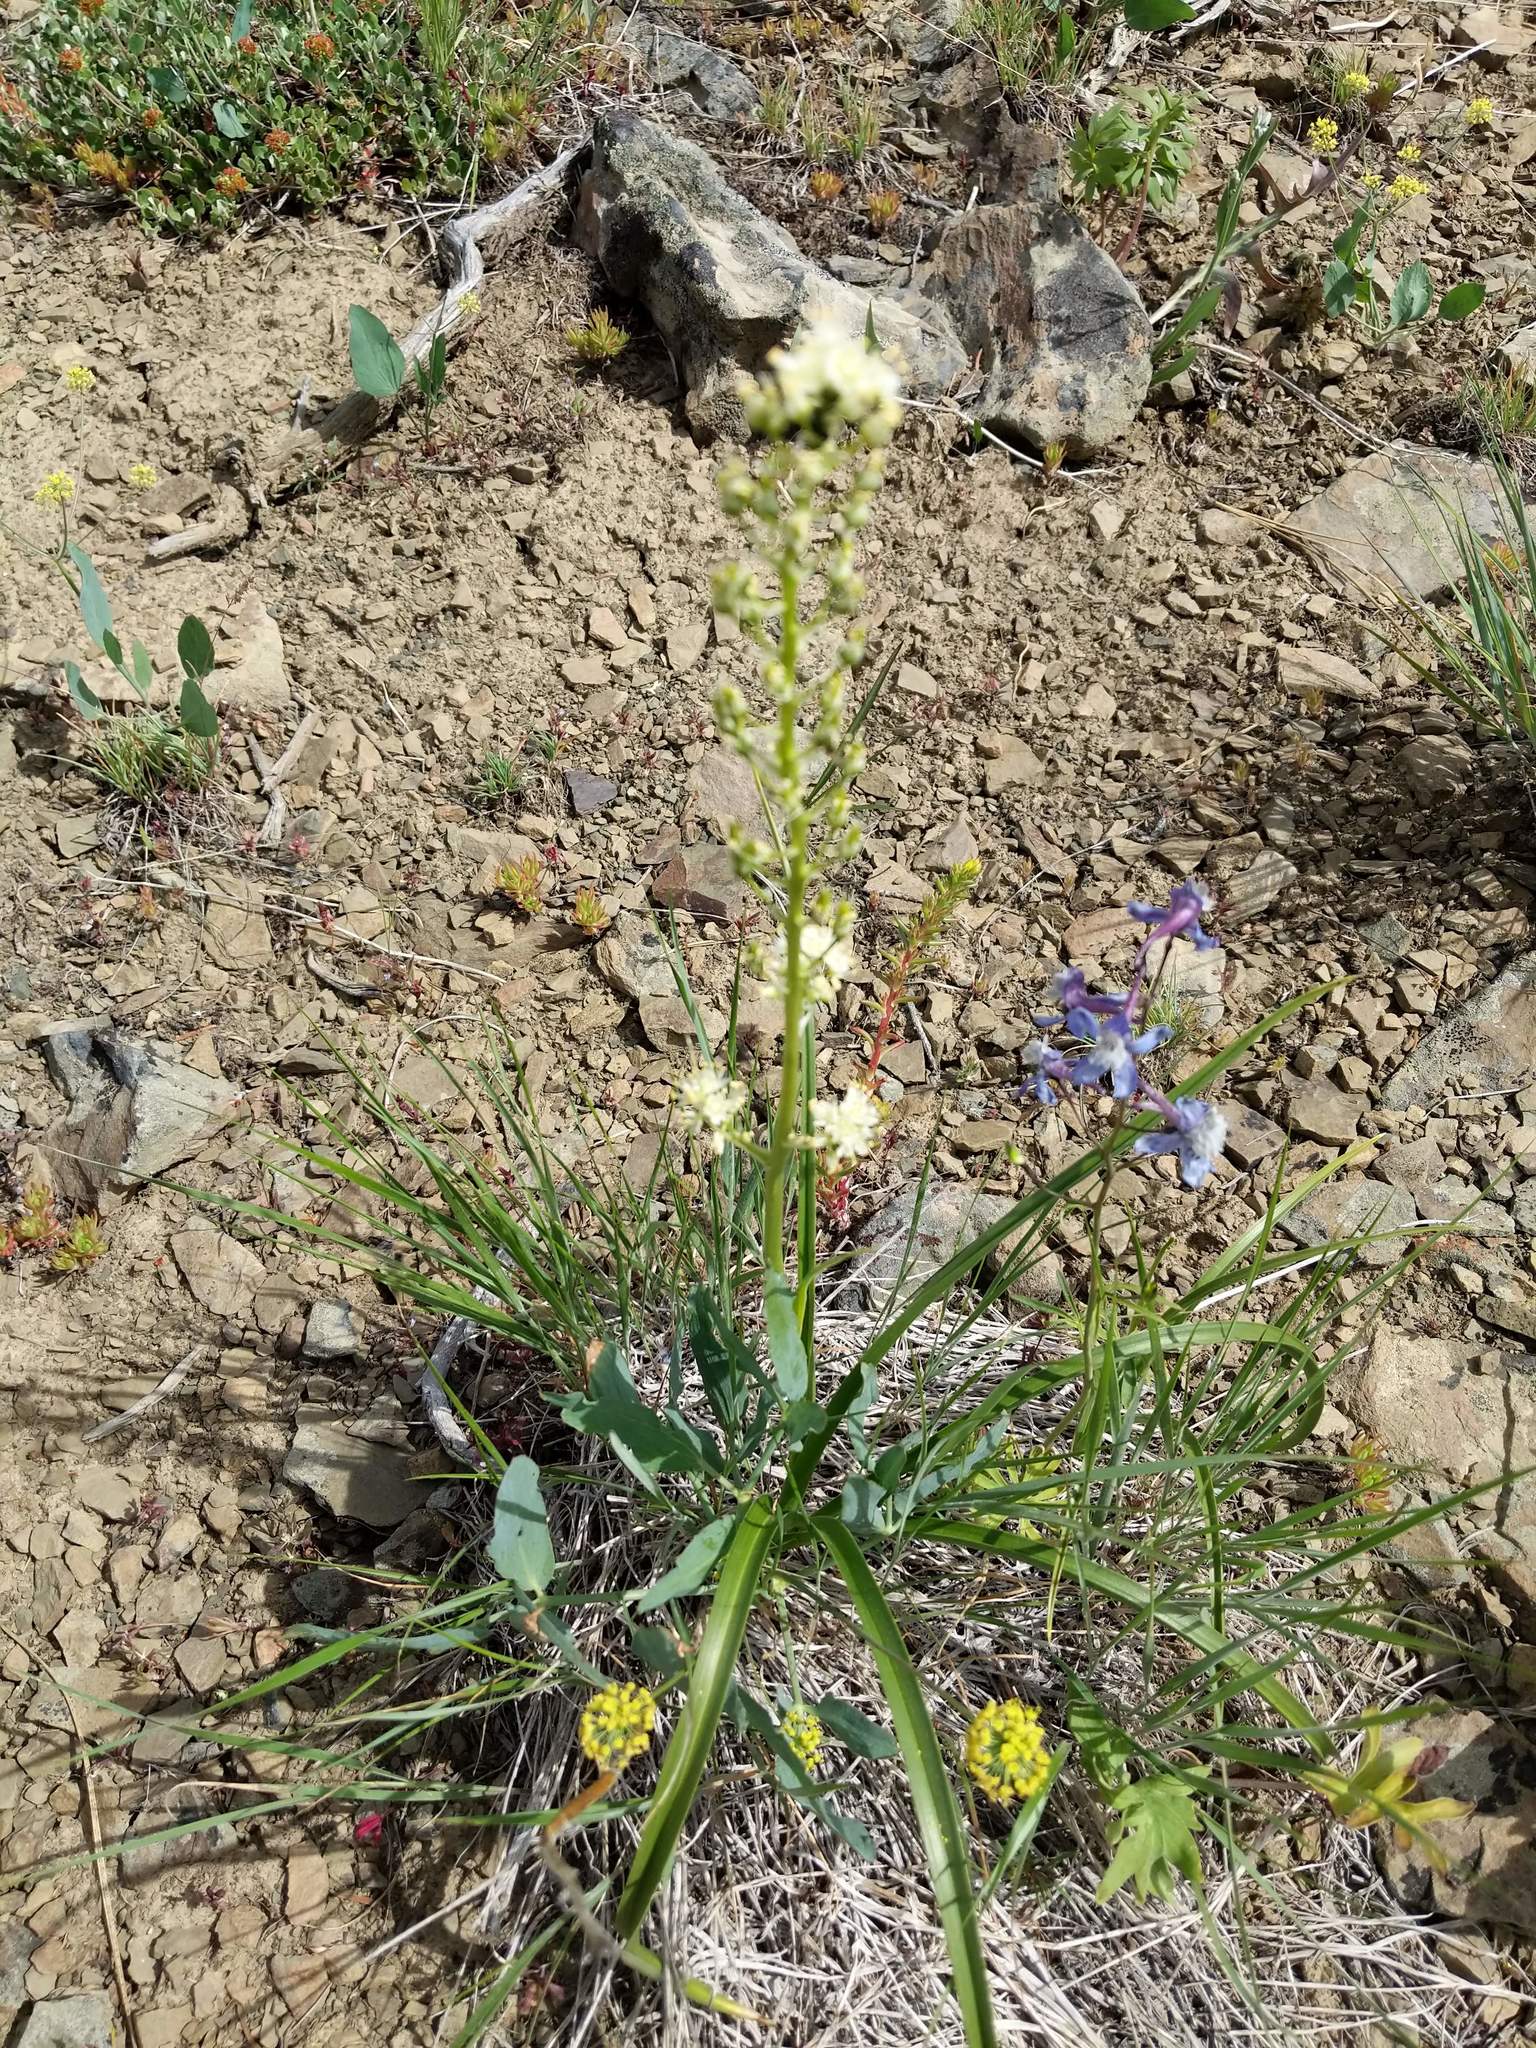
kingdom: Plantae
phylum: Tracheophyta
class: Liliopsida
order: Liliales
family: Melanthiaceae
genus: Toxicoscordion
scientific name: Toxicoscordion paniculatum
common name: Foothill death camas
